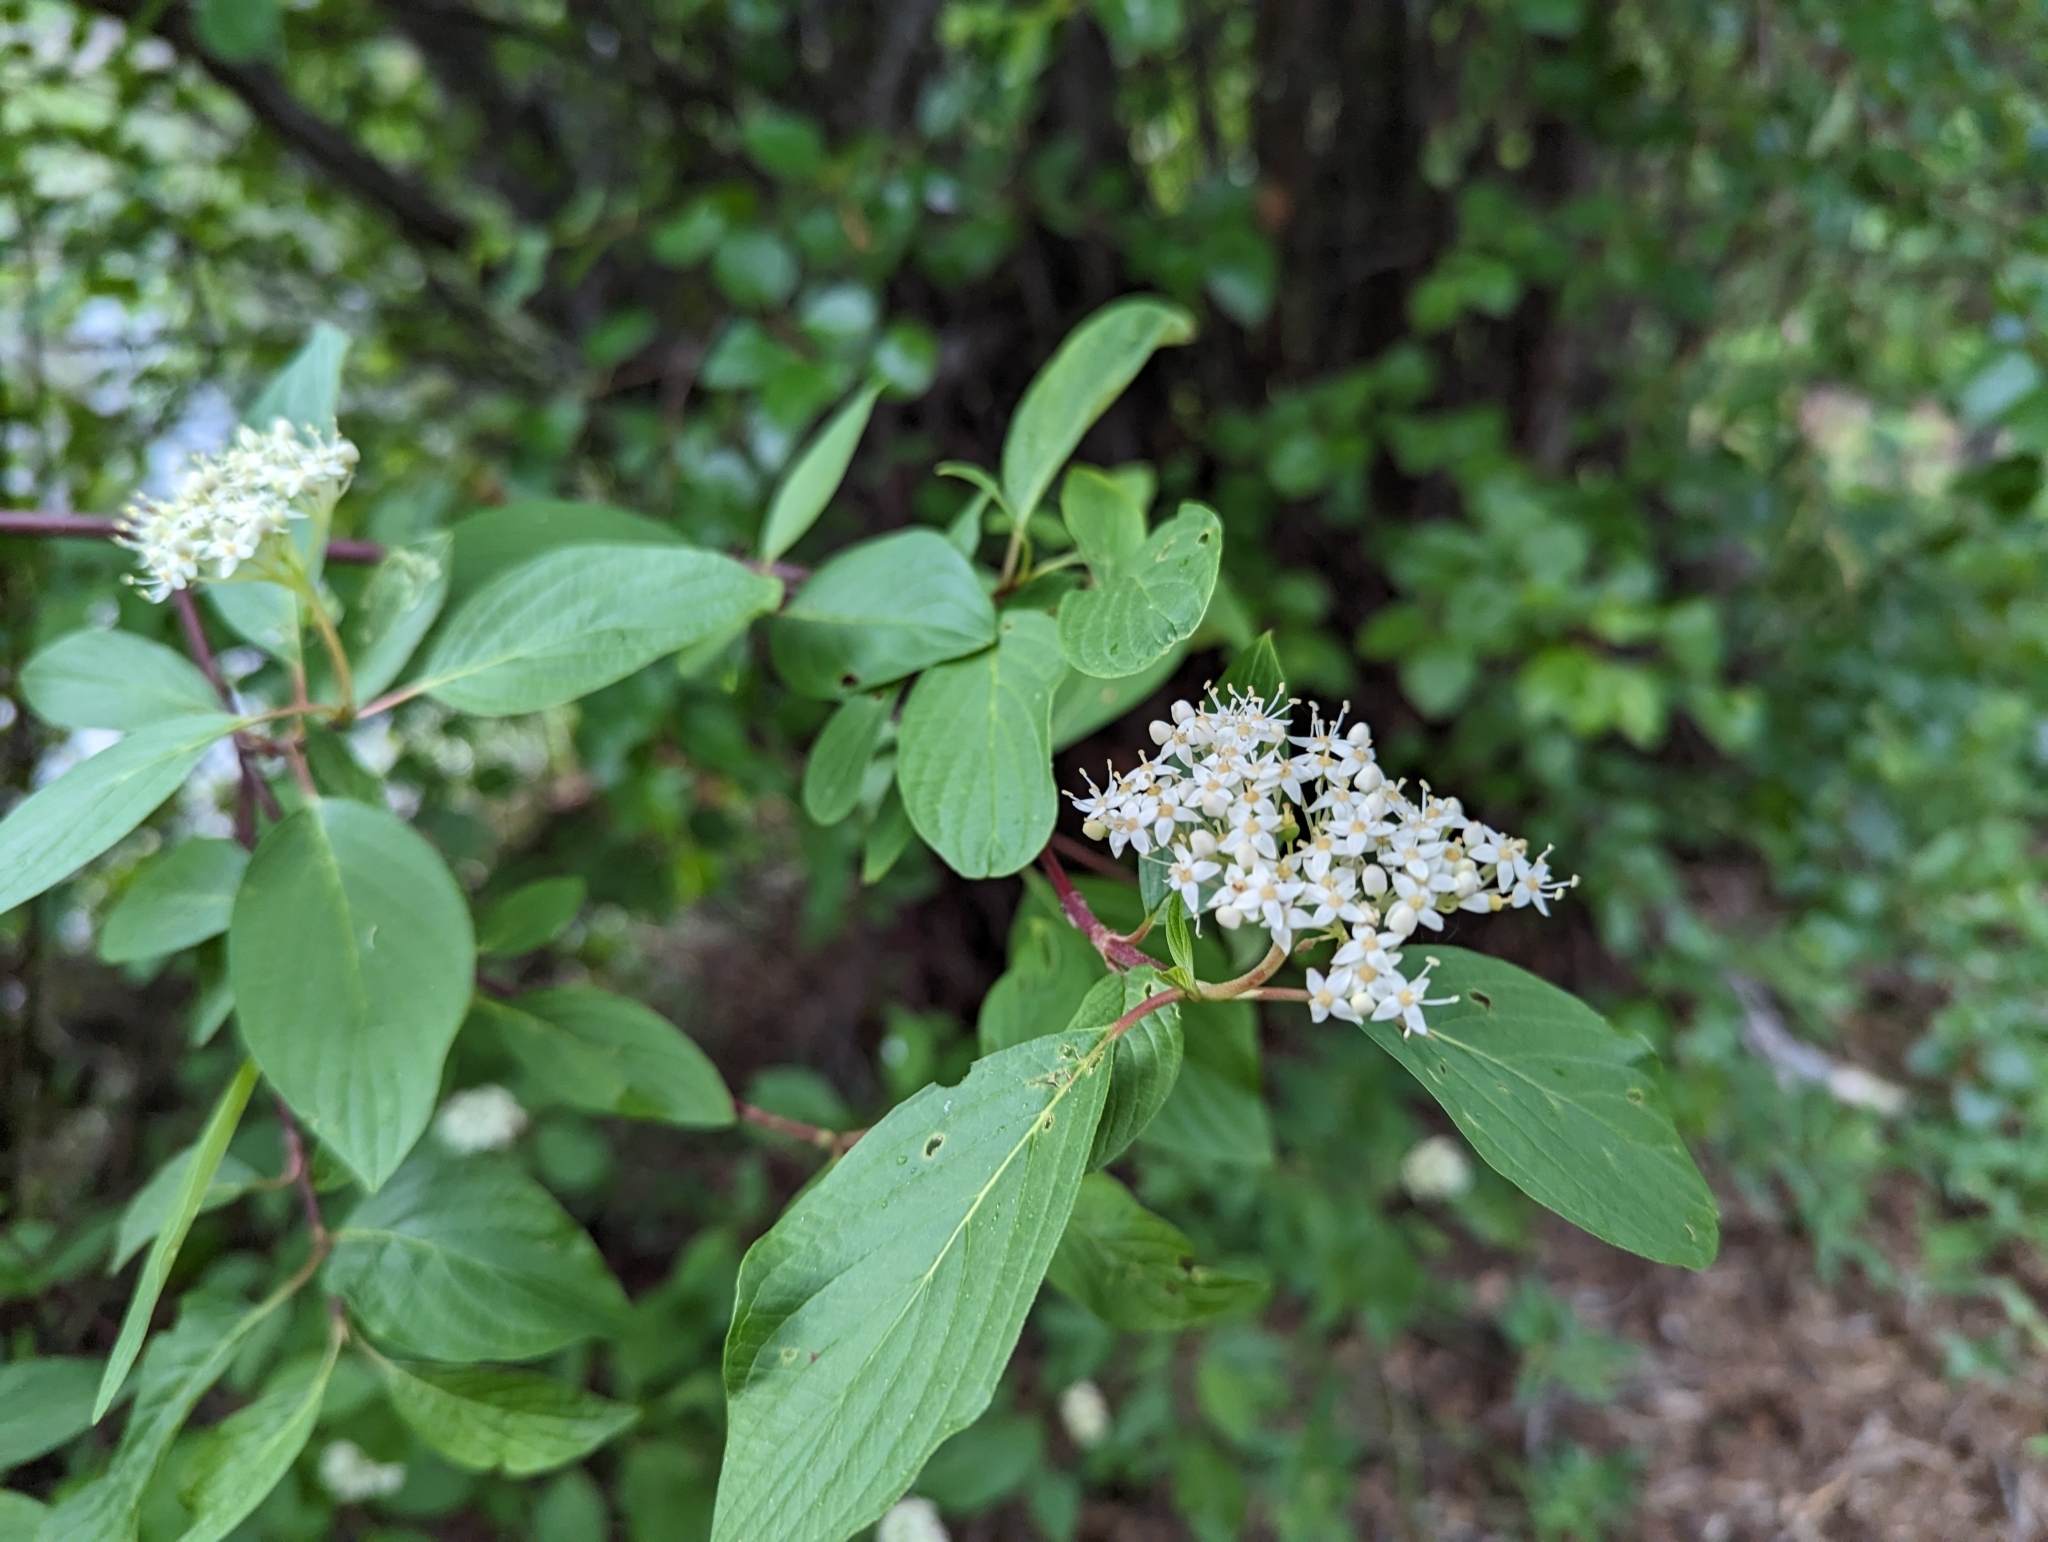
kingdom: Plantae
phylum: Tracheophyta
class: Magnoliopsida
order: Cornales
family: Cornaceae
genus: Cornus
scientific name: Cornus sericea
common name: Red-osier dogwood
